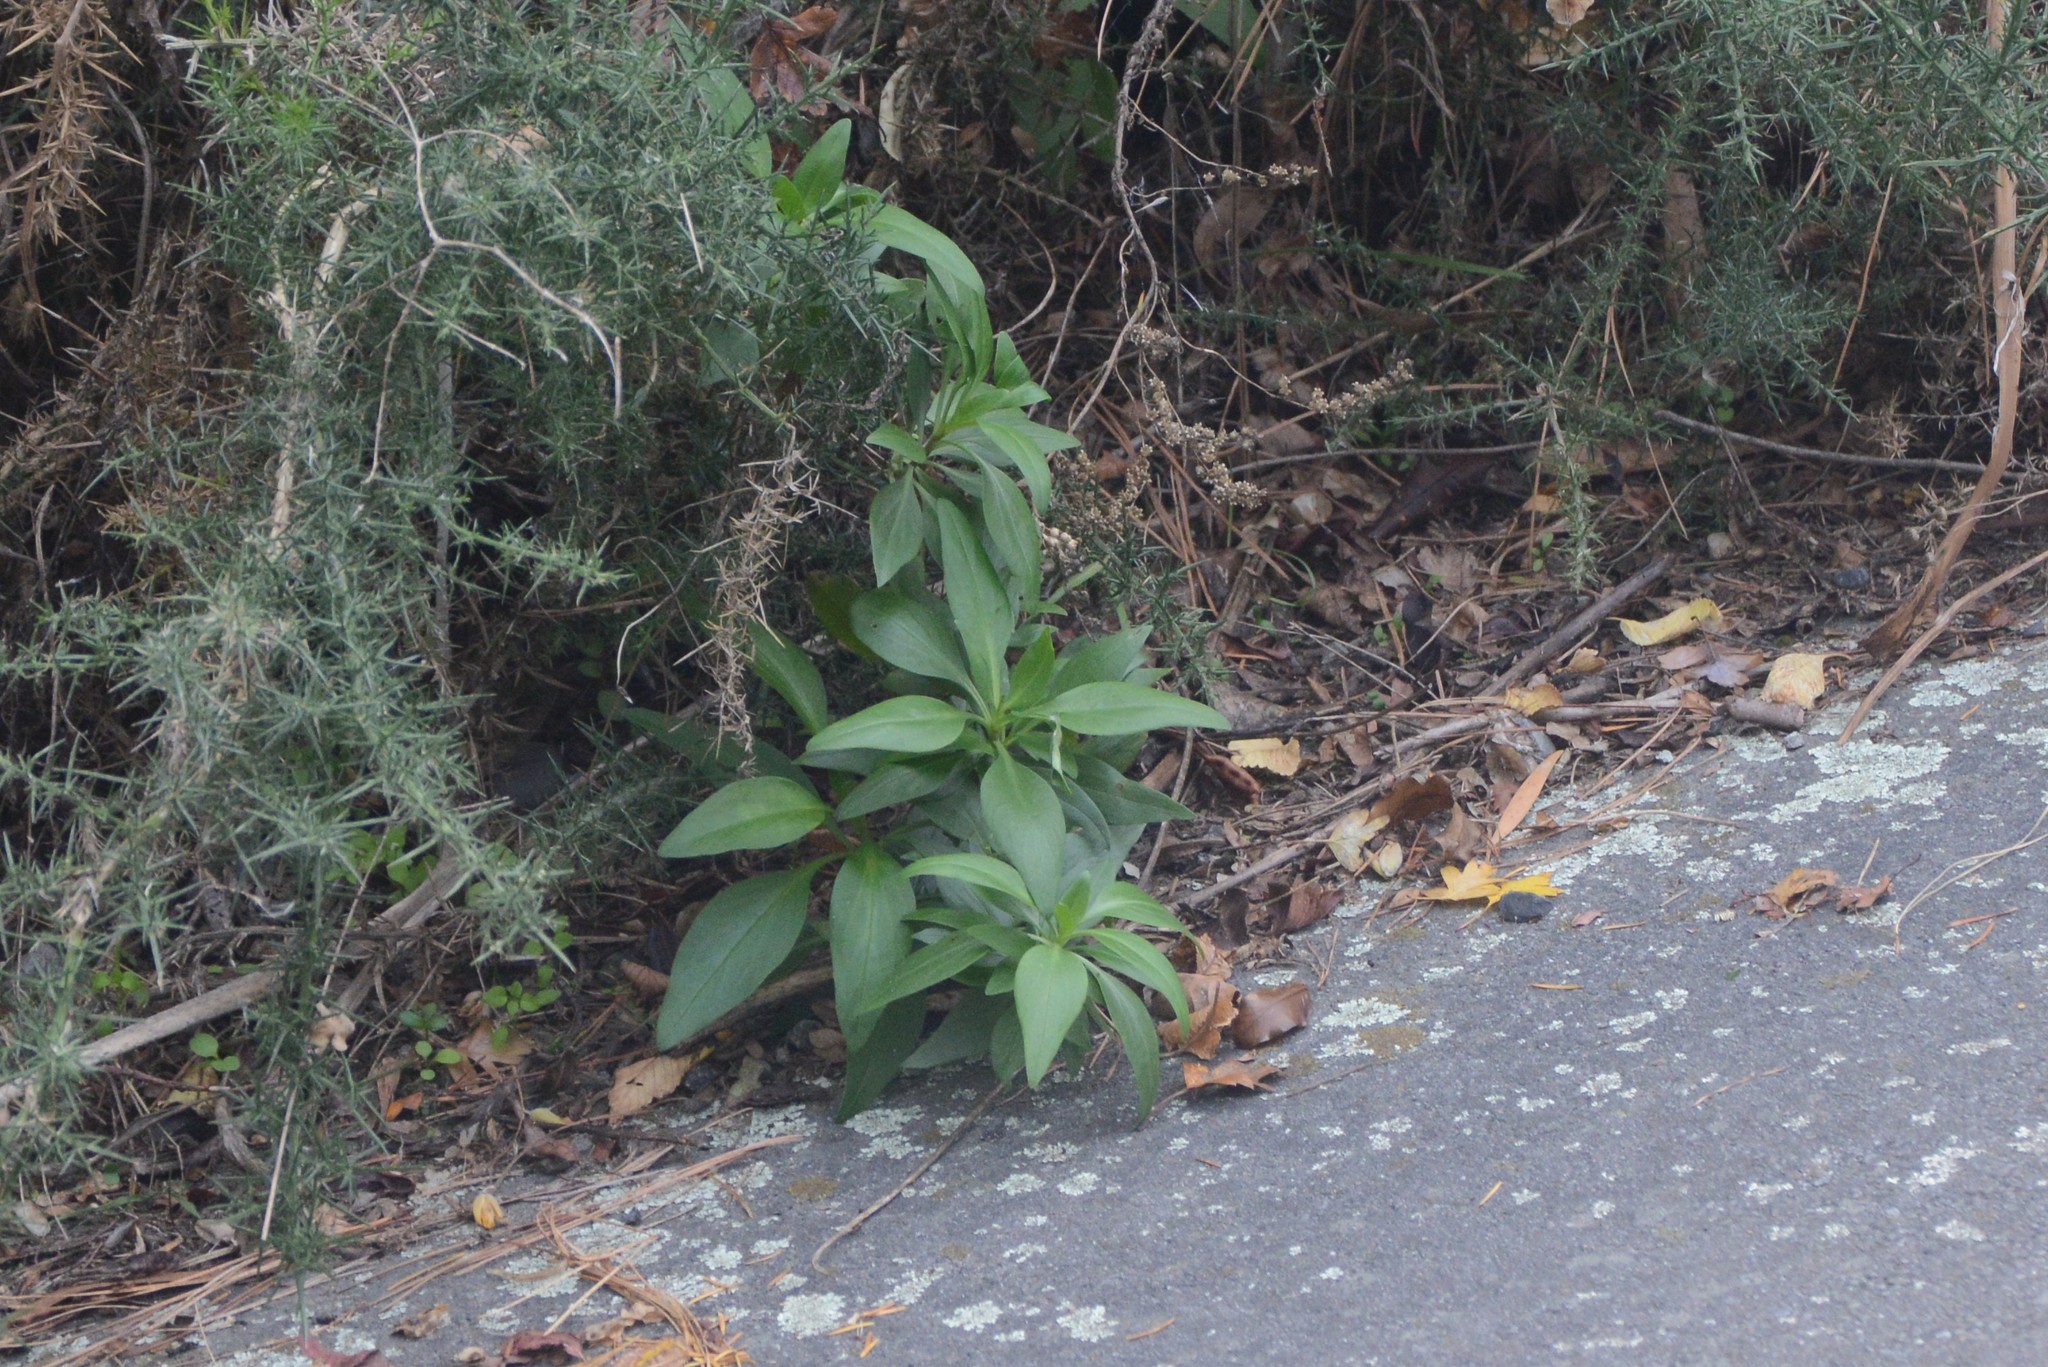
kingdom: Plantae
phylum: Tracheophyta
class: Magnoliopsida
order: Dipsacales
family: Caprifoliaceae
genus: Centranthus
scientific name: Centranthus ruber
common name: Red valerian
